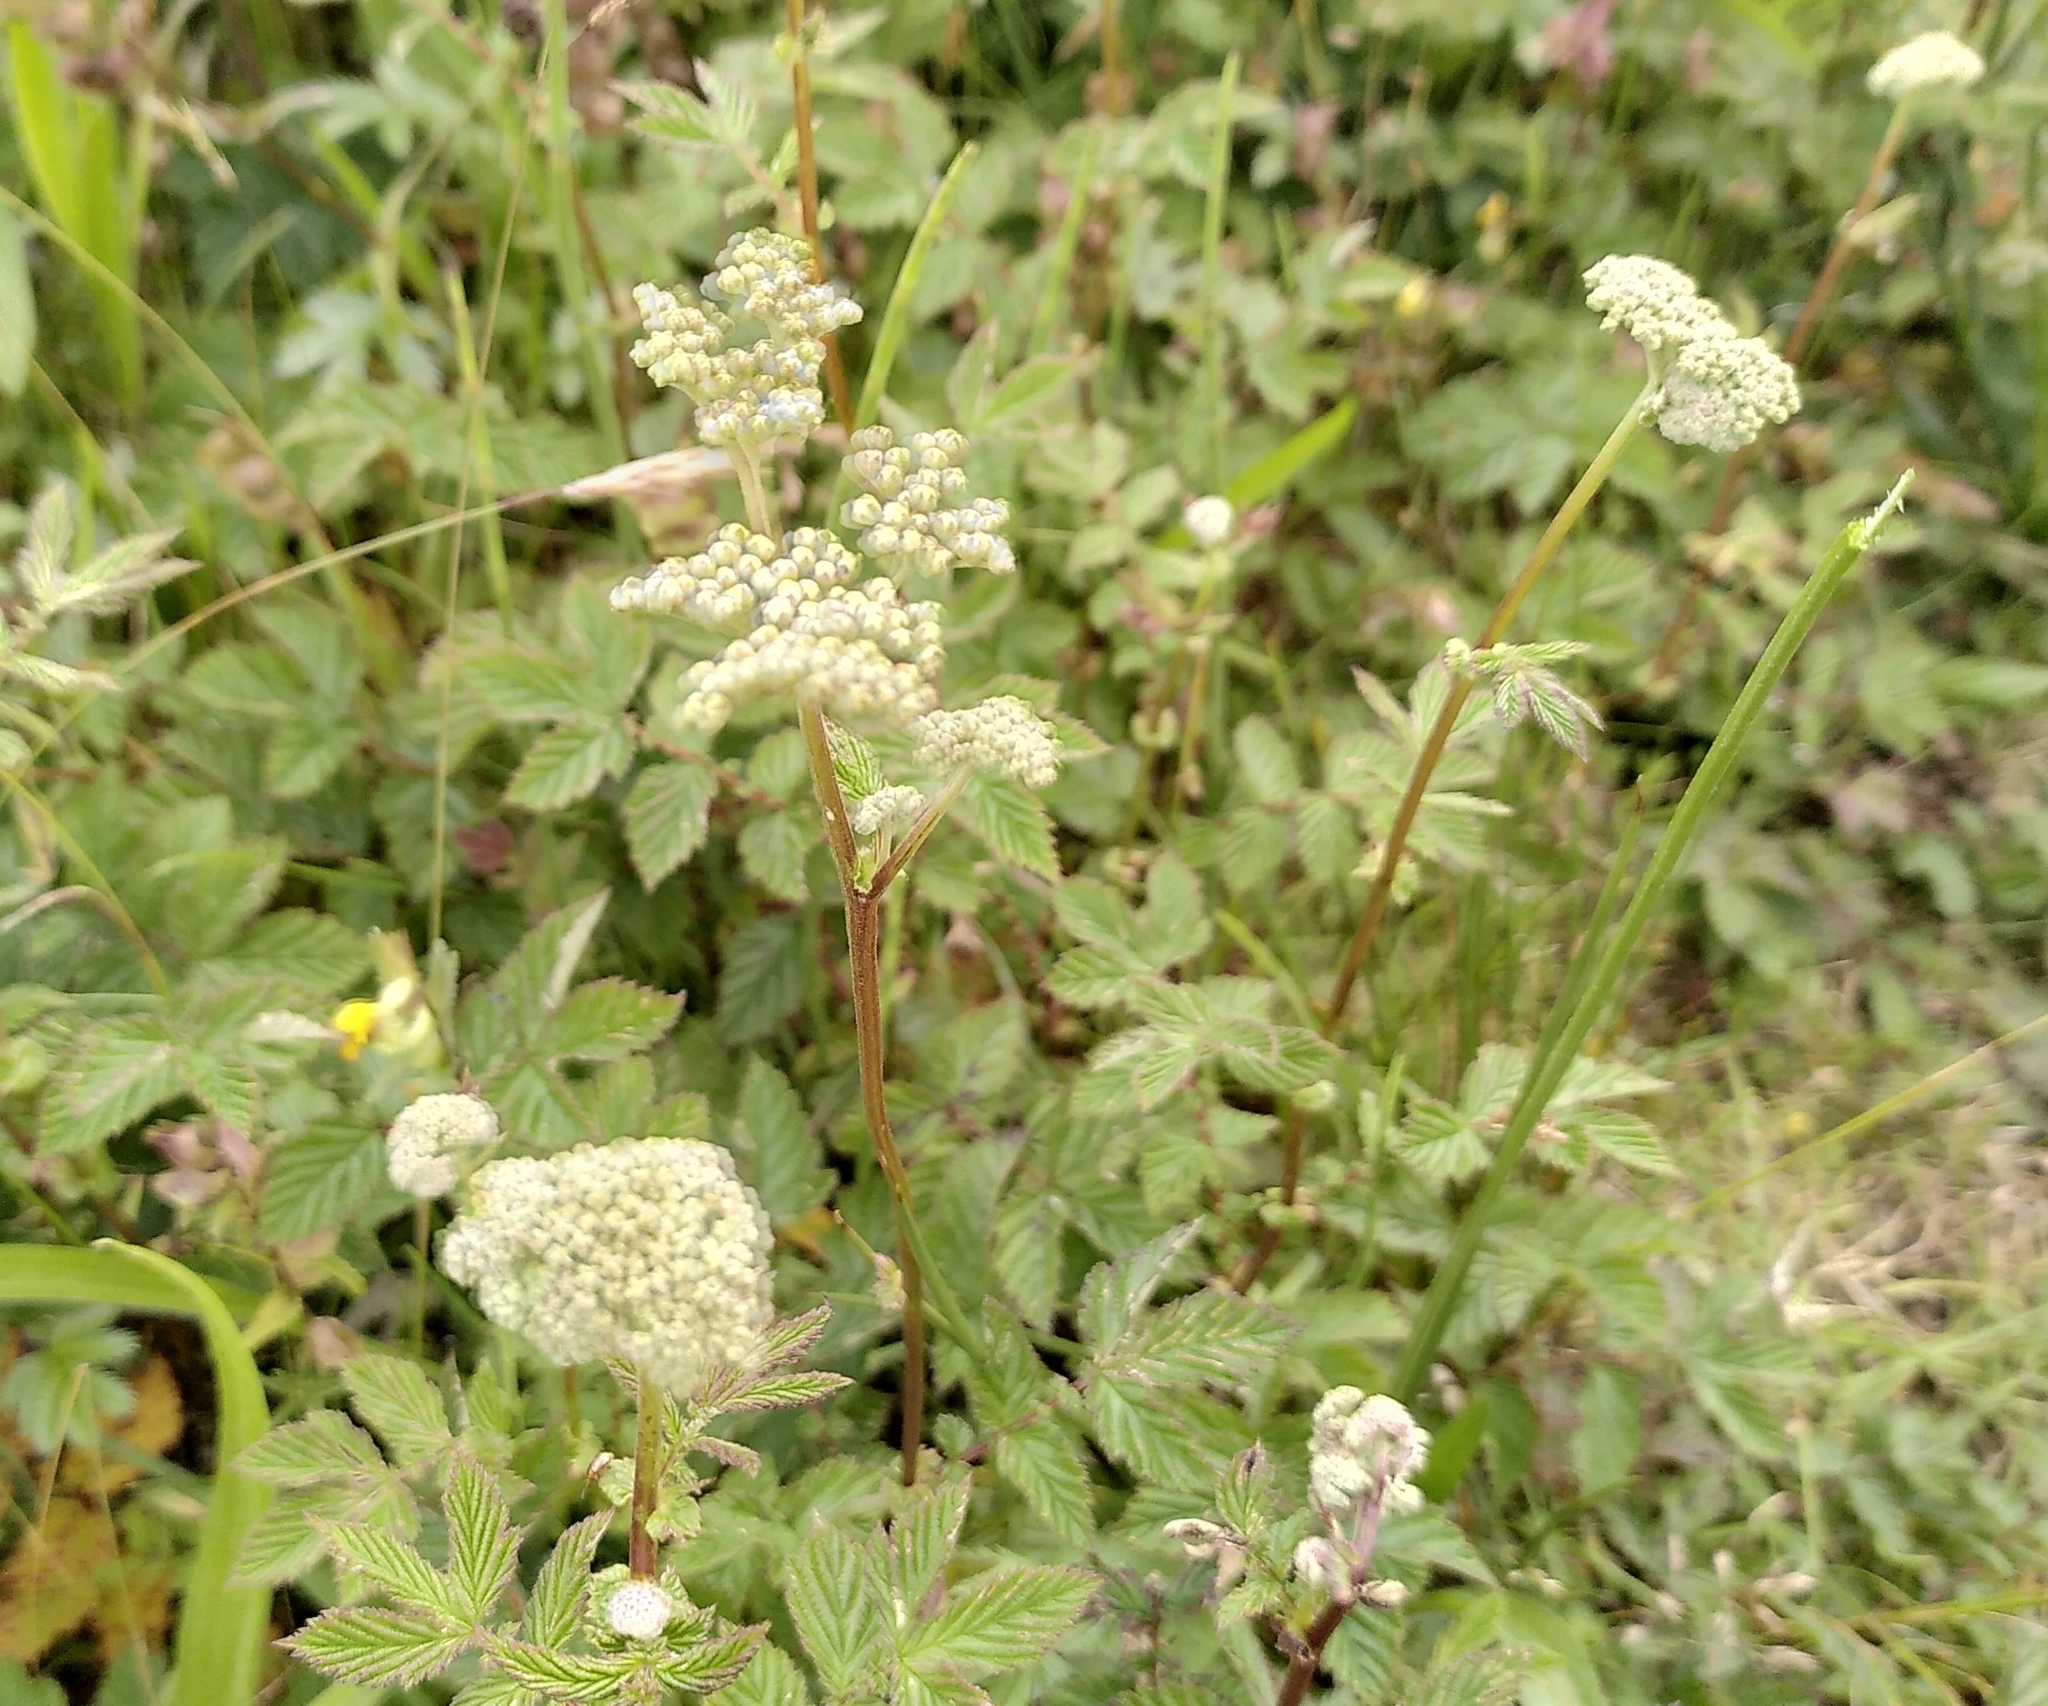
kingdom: Plantae
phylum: Tracheophyta
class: Magnoliopsida
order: Rosales
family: Rosaceae
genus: Filipendula
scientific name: Filipendula ulmaria
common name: Meadowsweet
